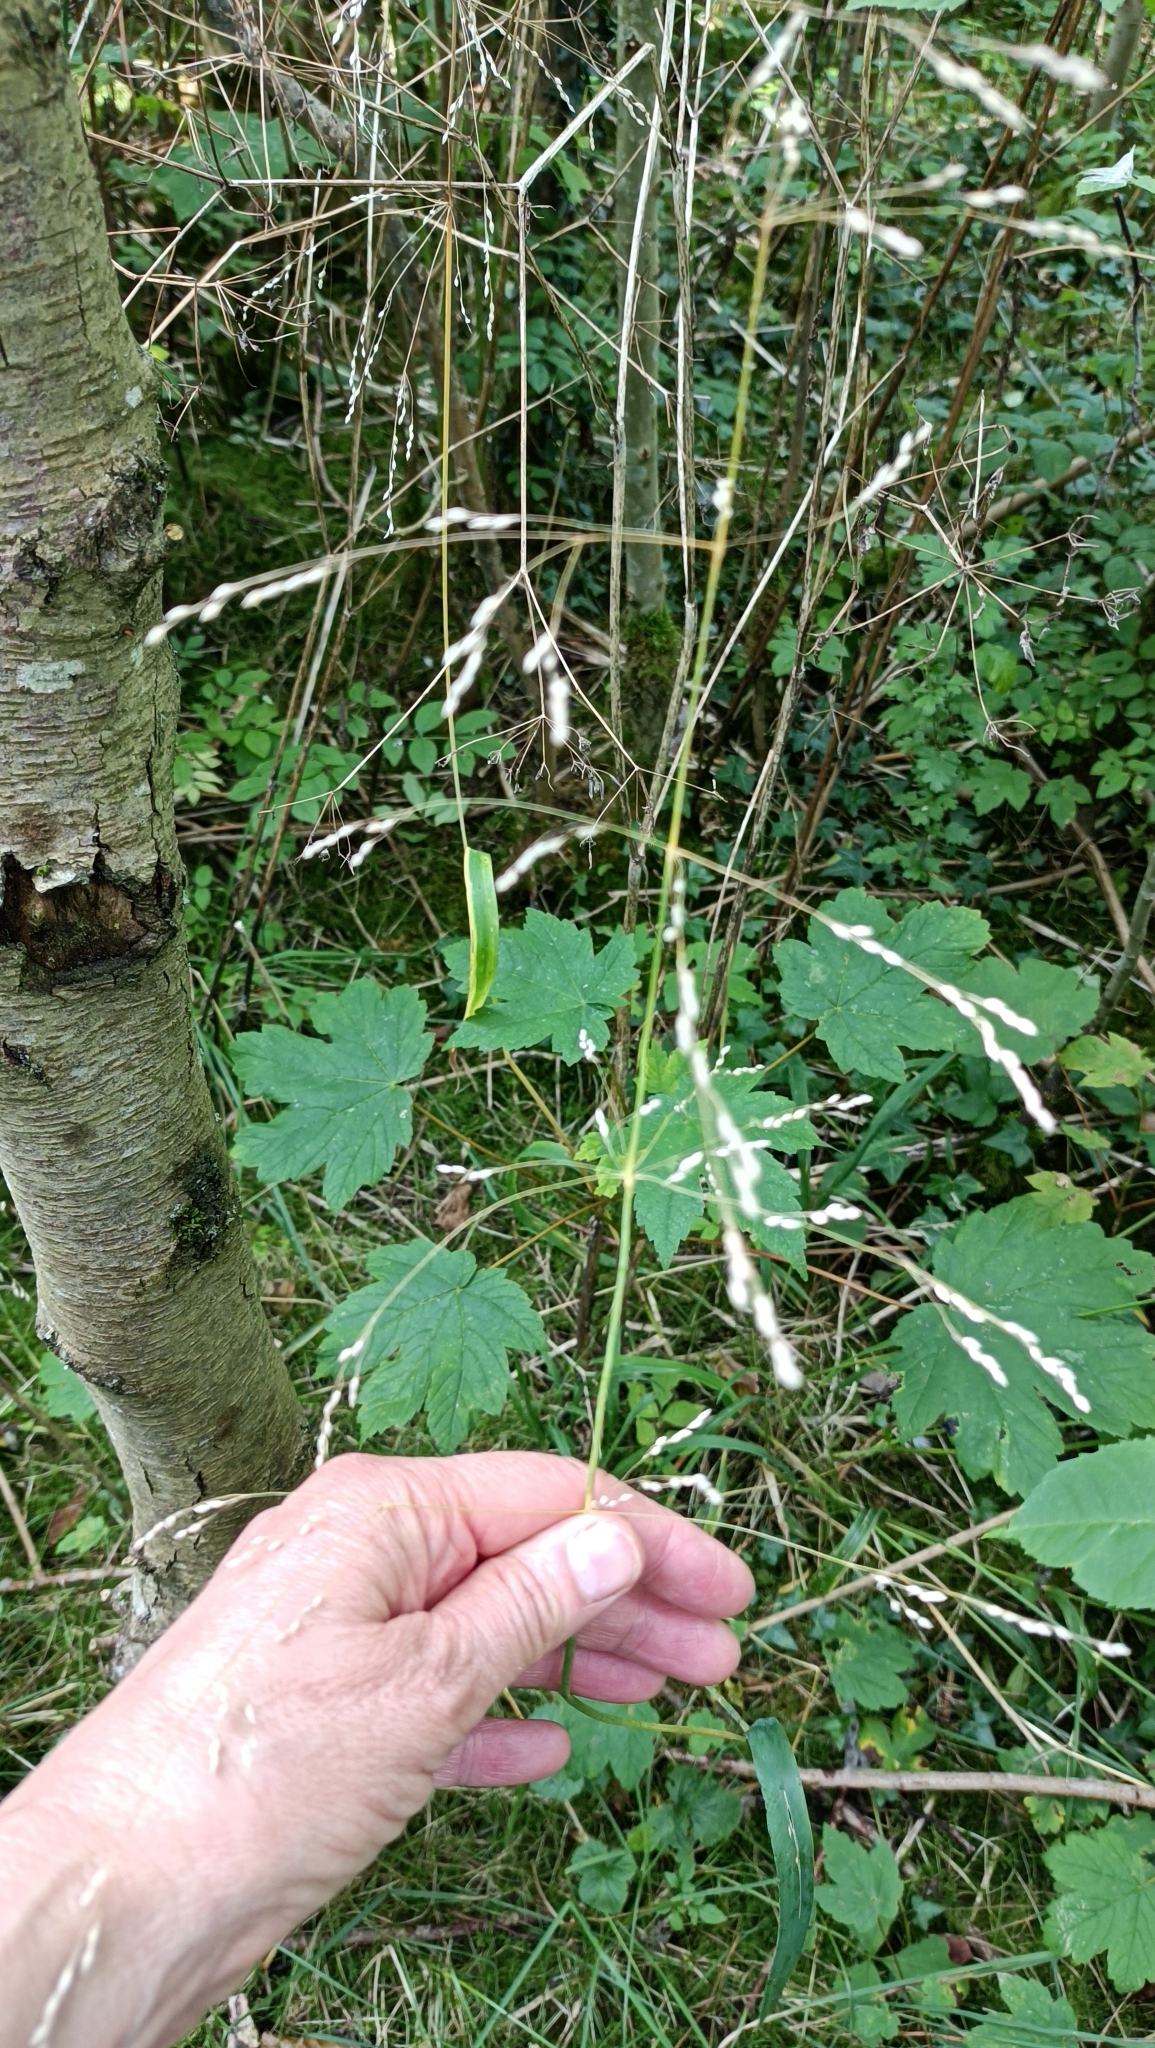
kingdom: Plantae
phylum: Tracheophyta
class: Liliopsida
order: Poales
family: Poaceae
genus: Milium
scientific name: Milium effusum
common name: Wood millet
